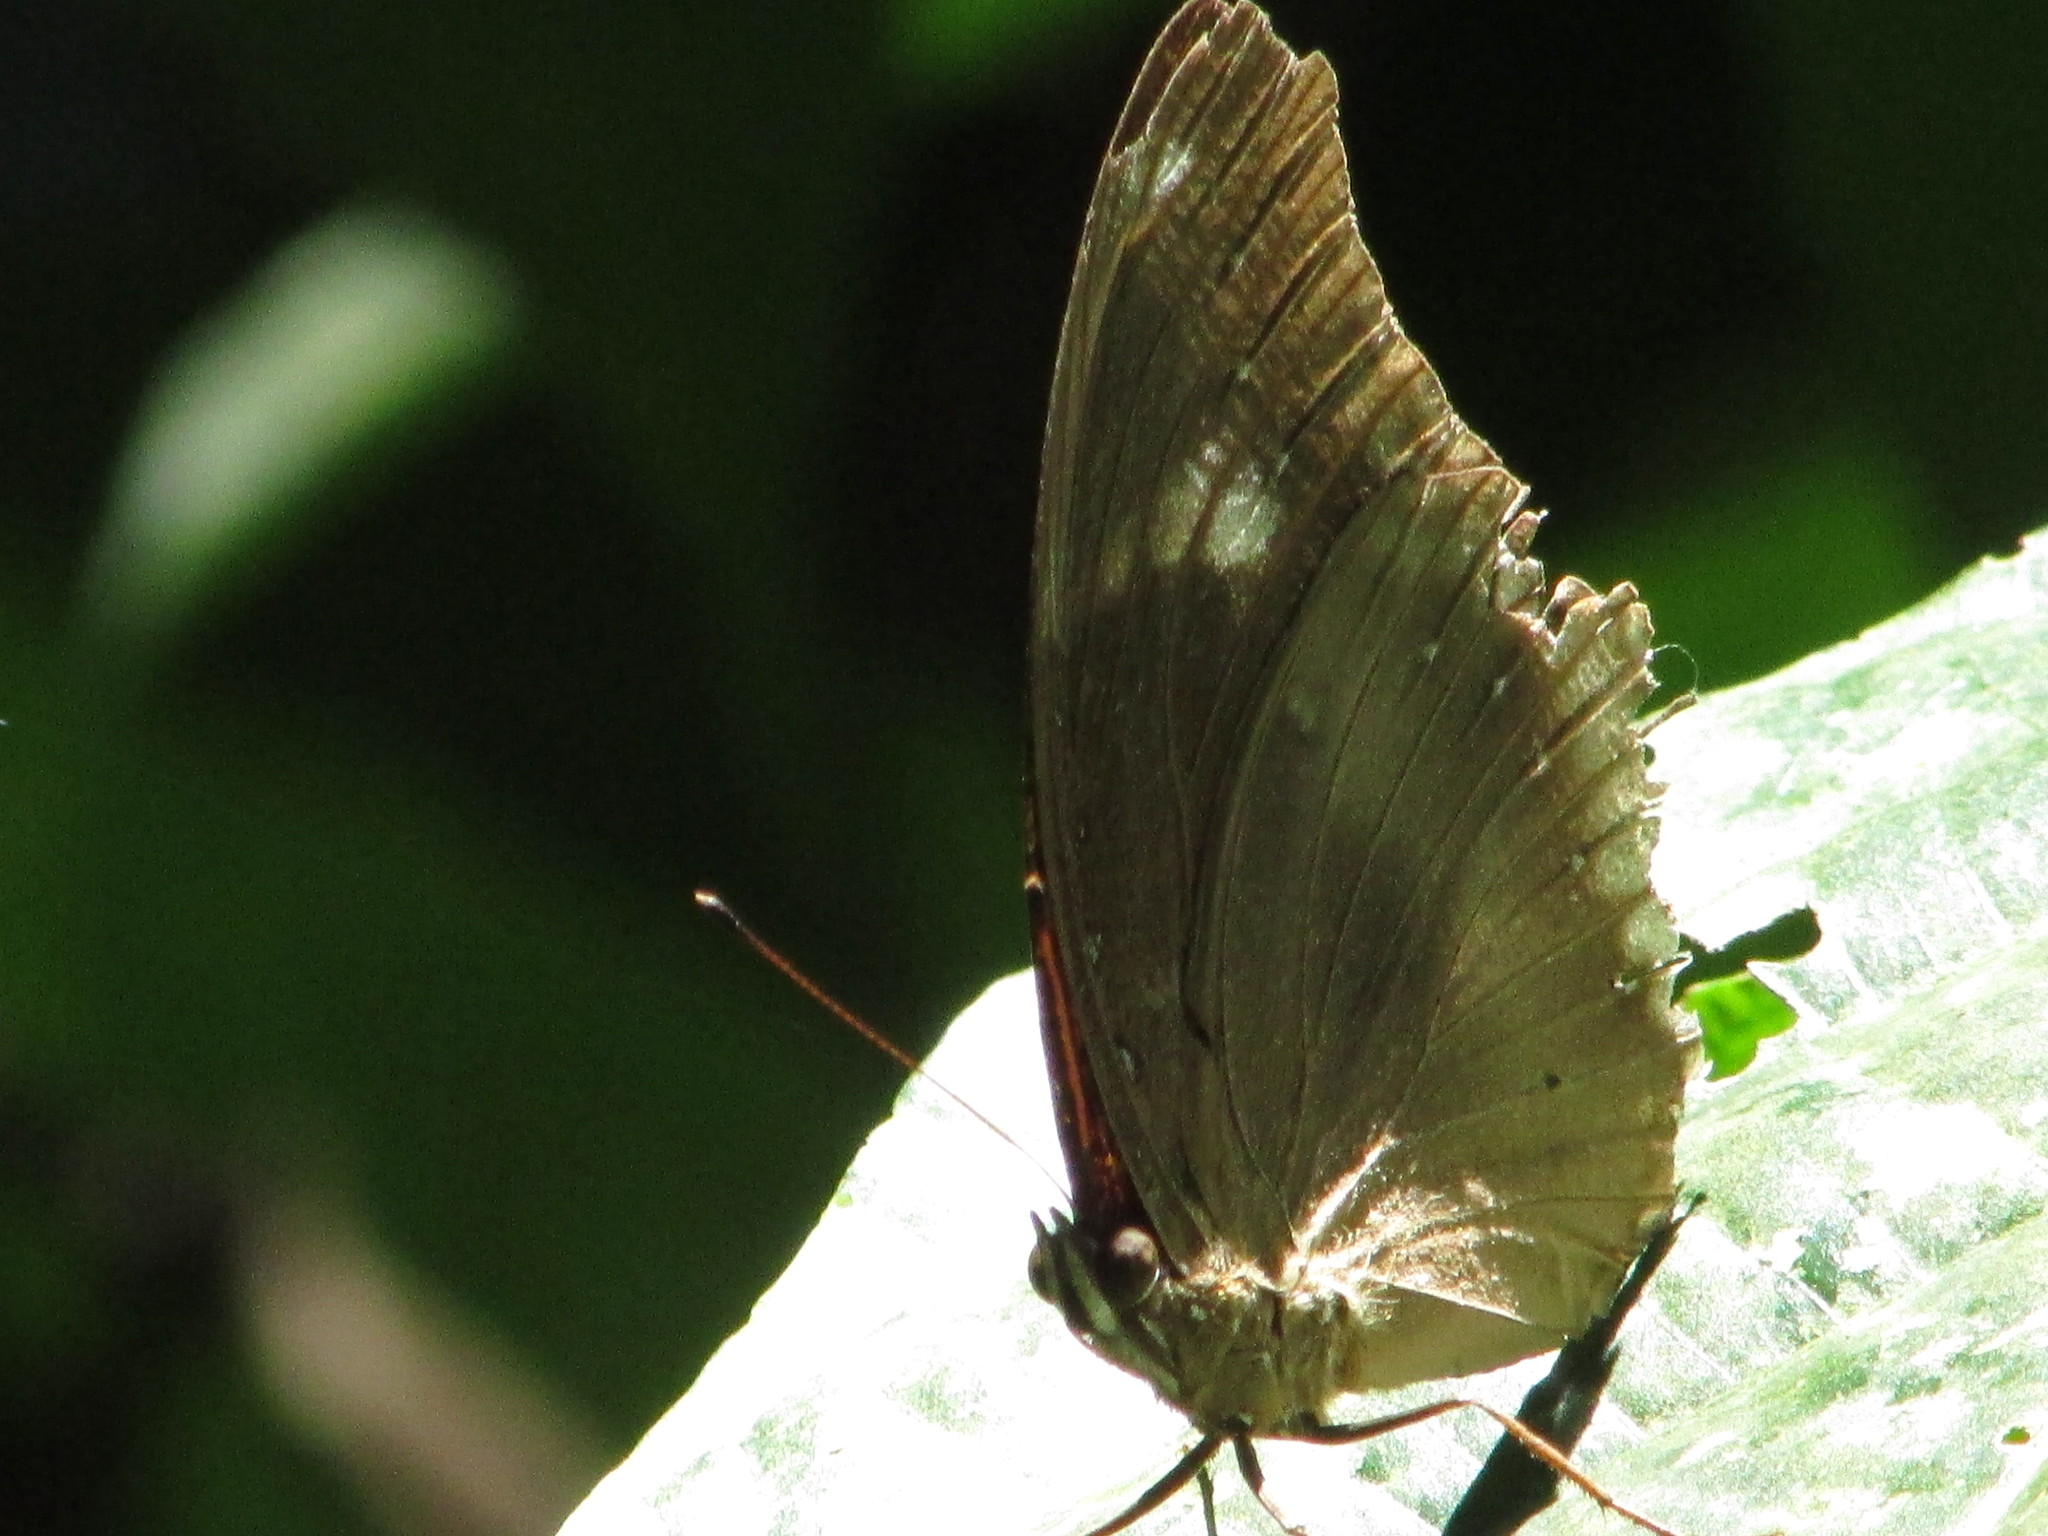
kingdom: Animalia
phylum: Arthropoda
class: Insecta
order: Lepidoptera
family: Nymphalidae
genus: Hypolimnas
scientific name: Hypolimnas bolina
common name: Great eggfly
